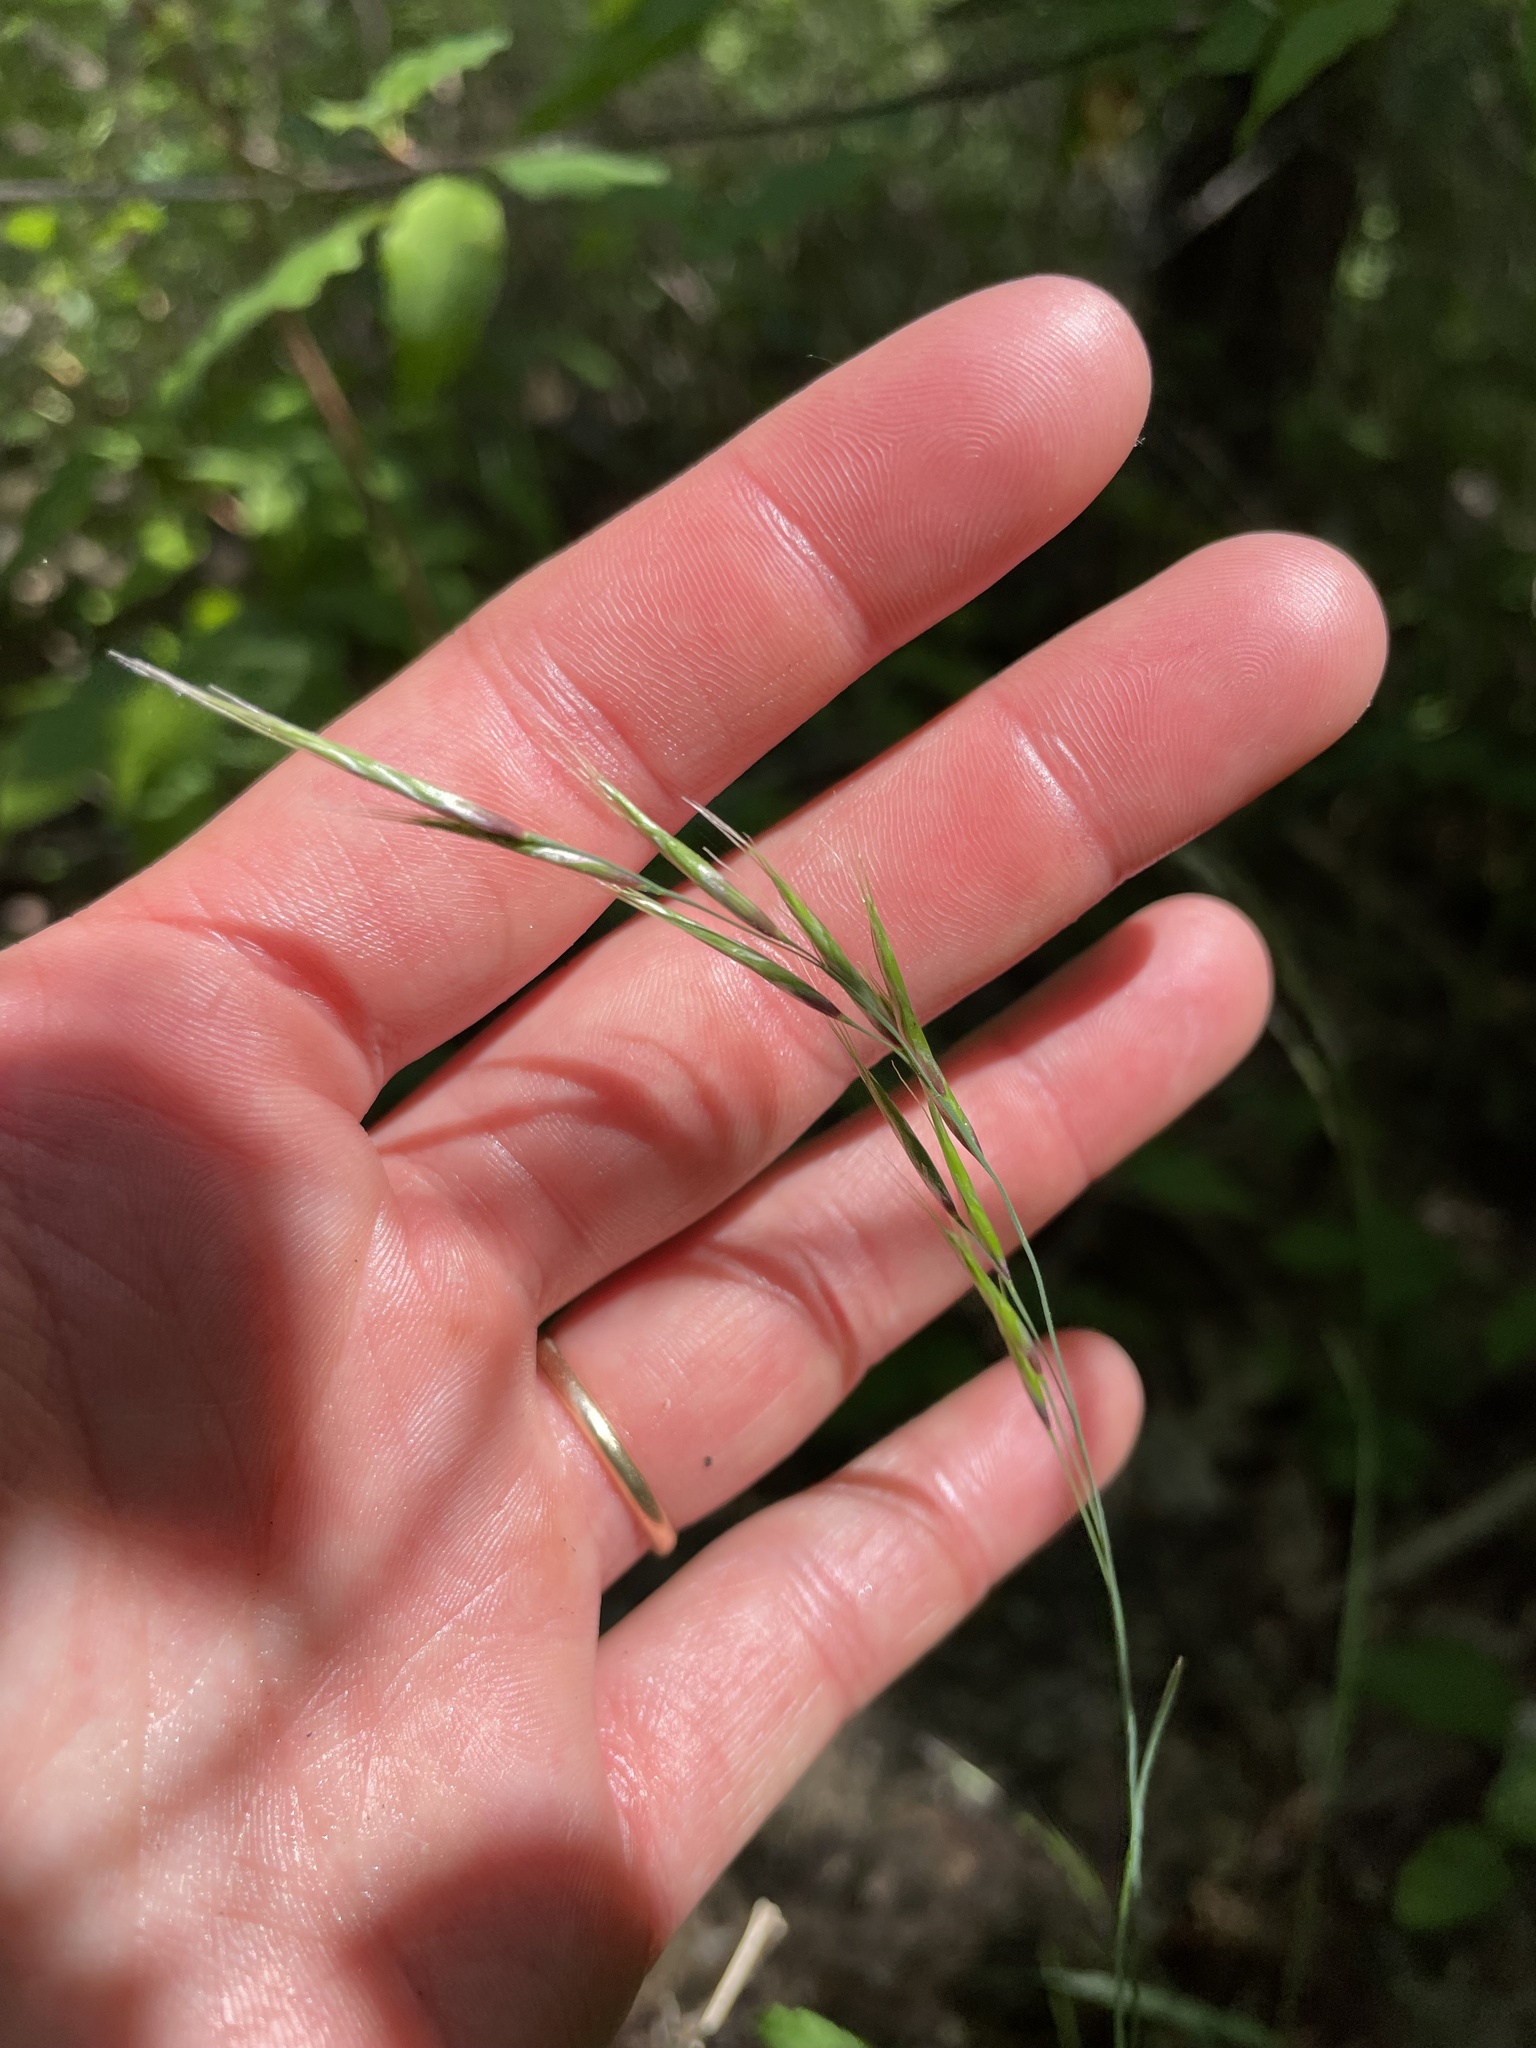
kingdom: Plantae
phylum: Tracheophyta
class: Liliopsida
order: Poales
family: Poaceae
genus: Schizachne
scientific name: Schizachne purpurascens
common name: False melic
